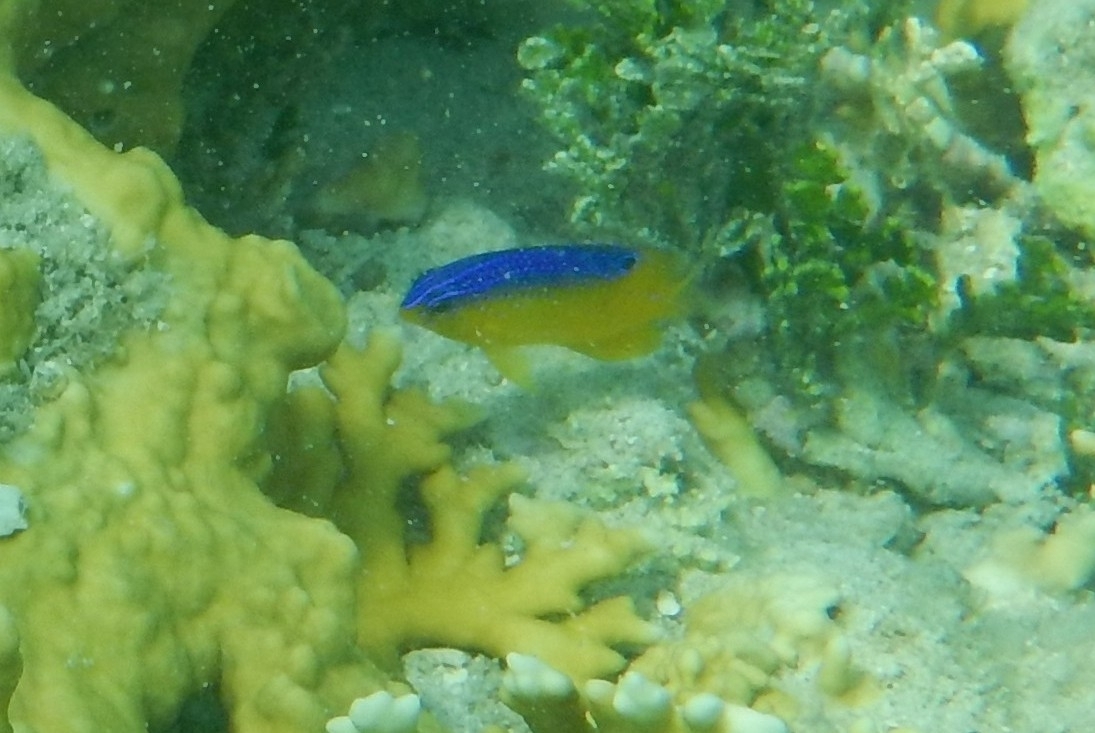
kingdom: Animalia
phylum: Chordata
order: Perciformes
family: Pomacentridae
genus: Stegastes
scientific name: Stegastes leucostictus
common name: Beaugregory
